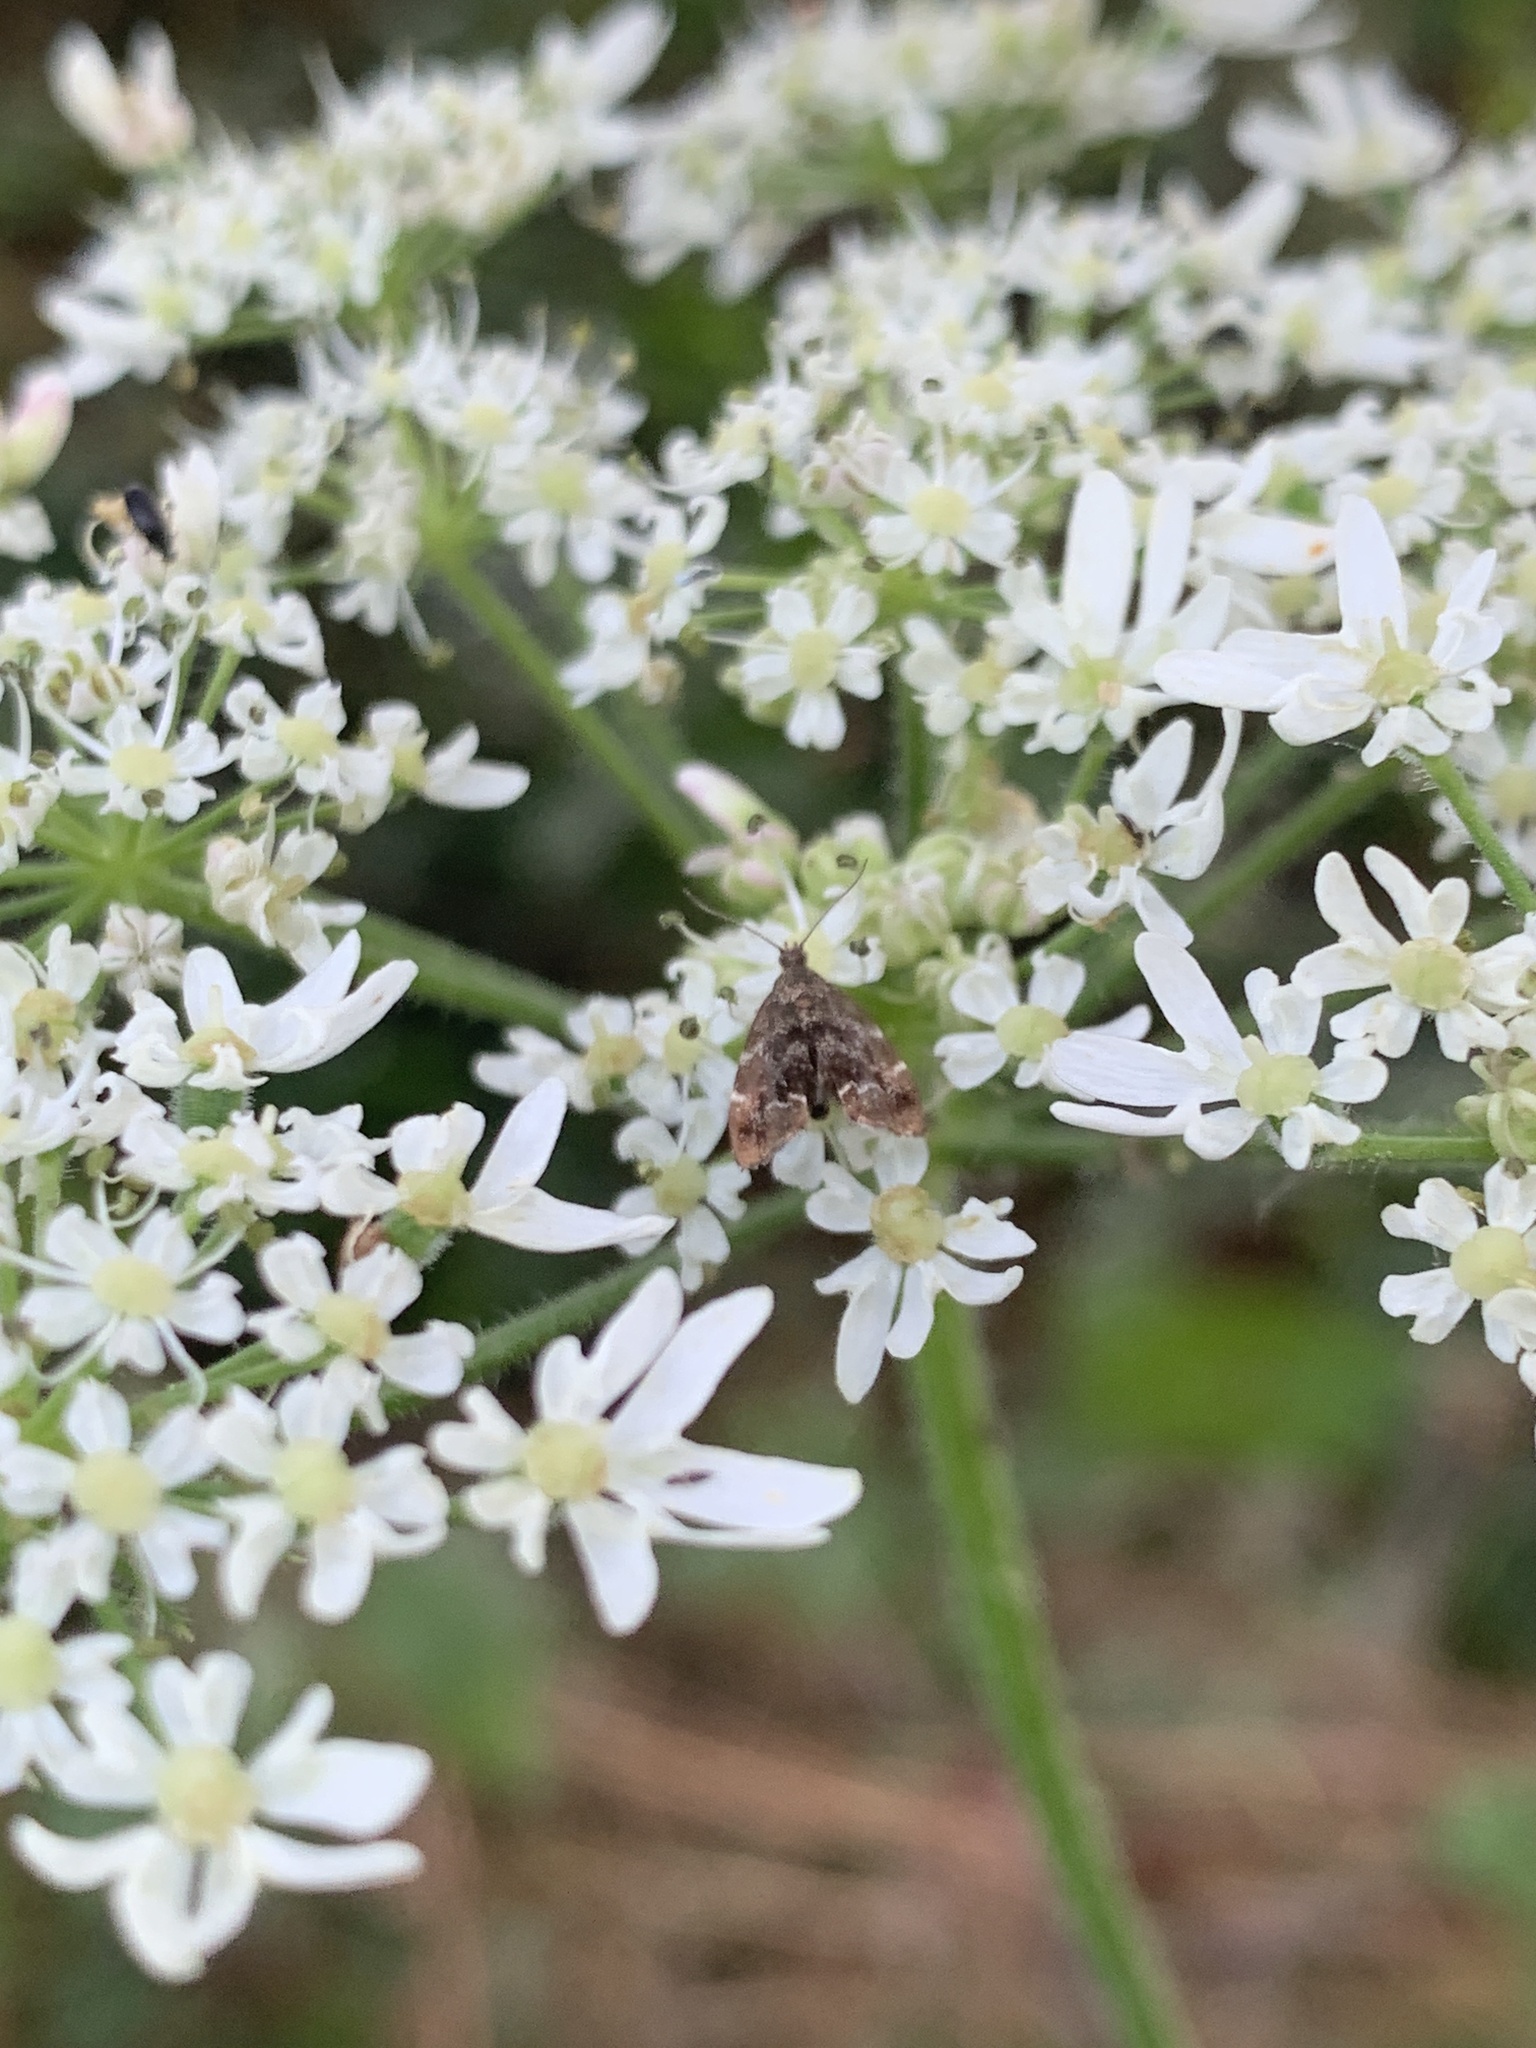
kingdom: Animalia
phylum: Arthropoda
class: Insecta
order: Lepidoptera
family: Choreutidae
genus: Anthophila
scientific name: Anthophila fabriciana
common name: Nettle-tap
